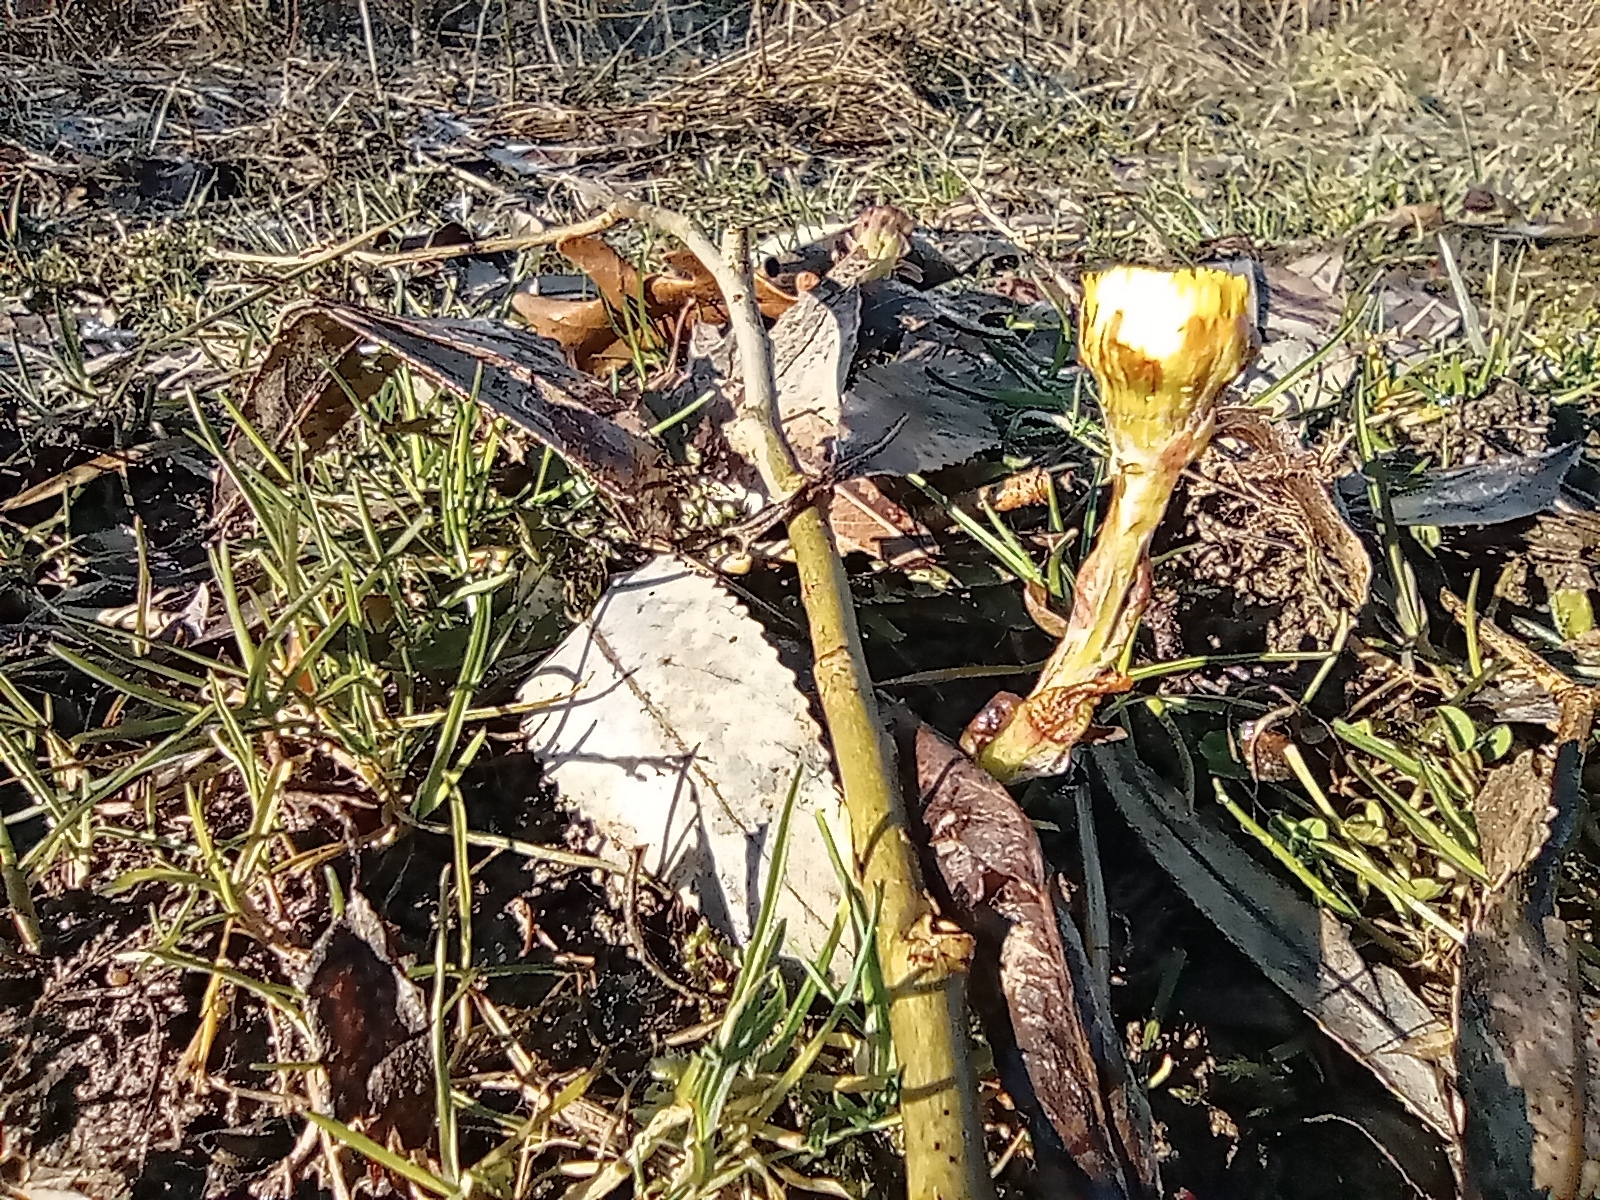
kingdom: Plantae
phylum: Tracheophyta
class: Magnoliopsida
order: Asterales
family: Asteraceae
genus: Tussilago
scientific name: Tussilago farfara
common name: Coltsfoot
